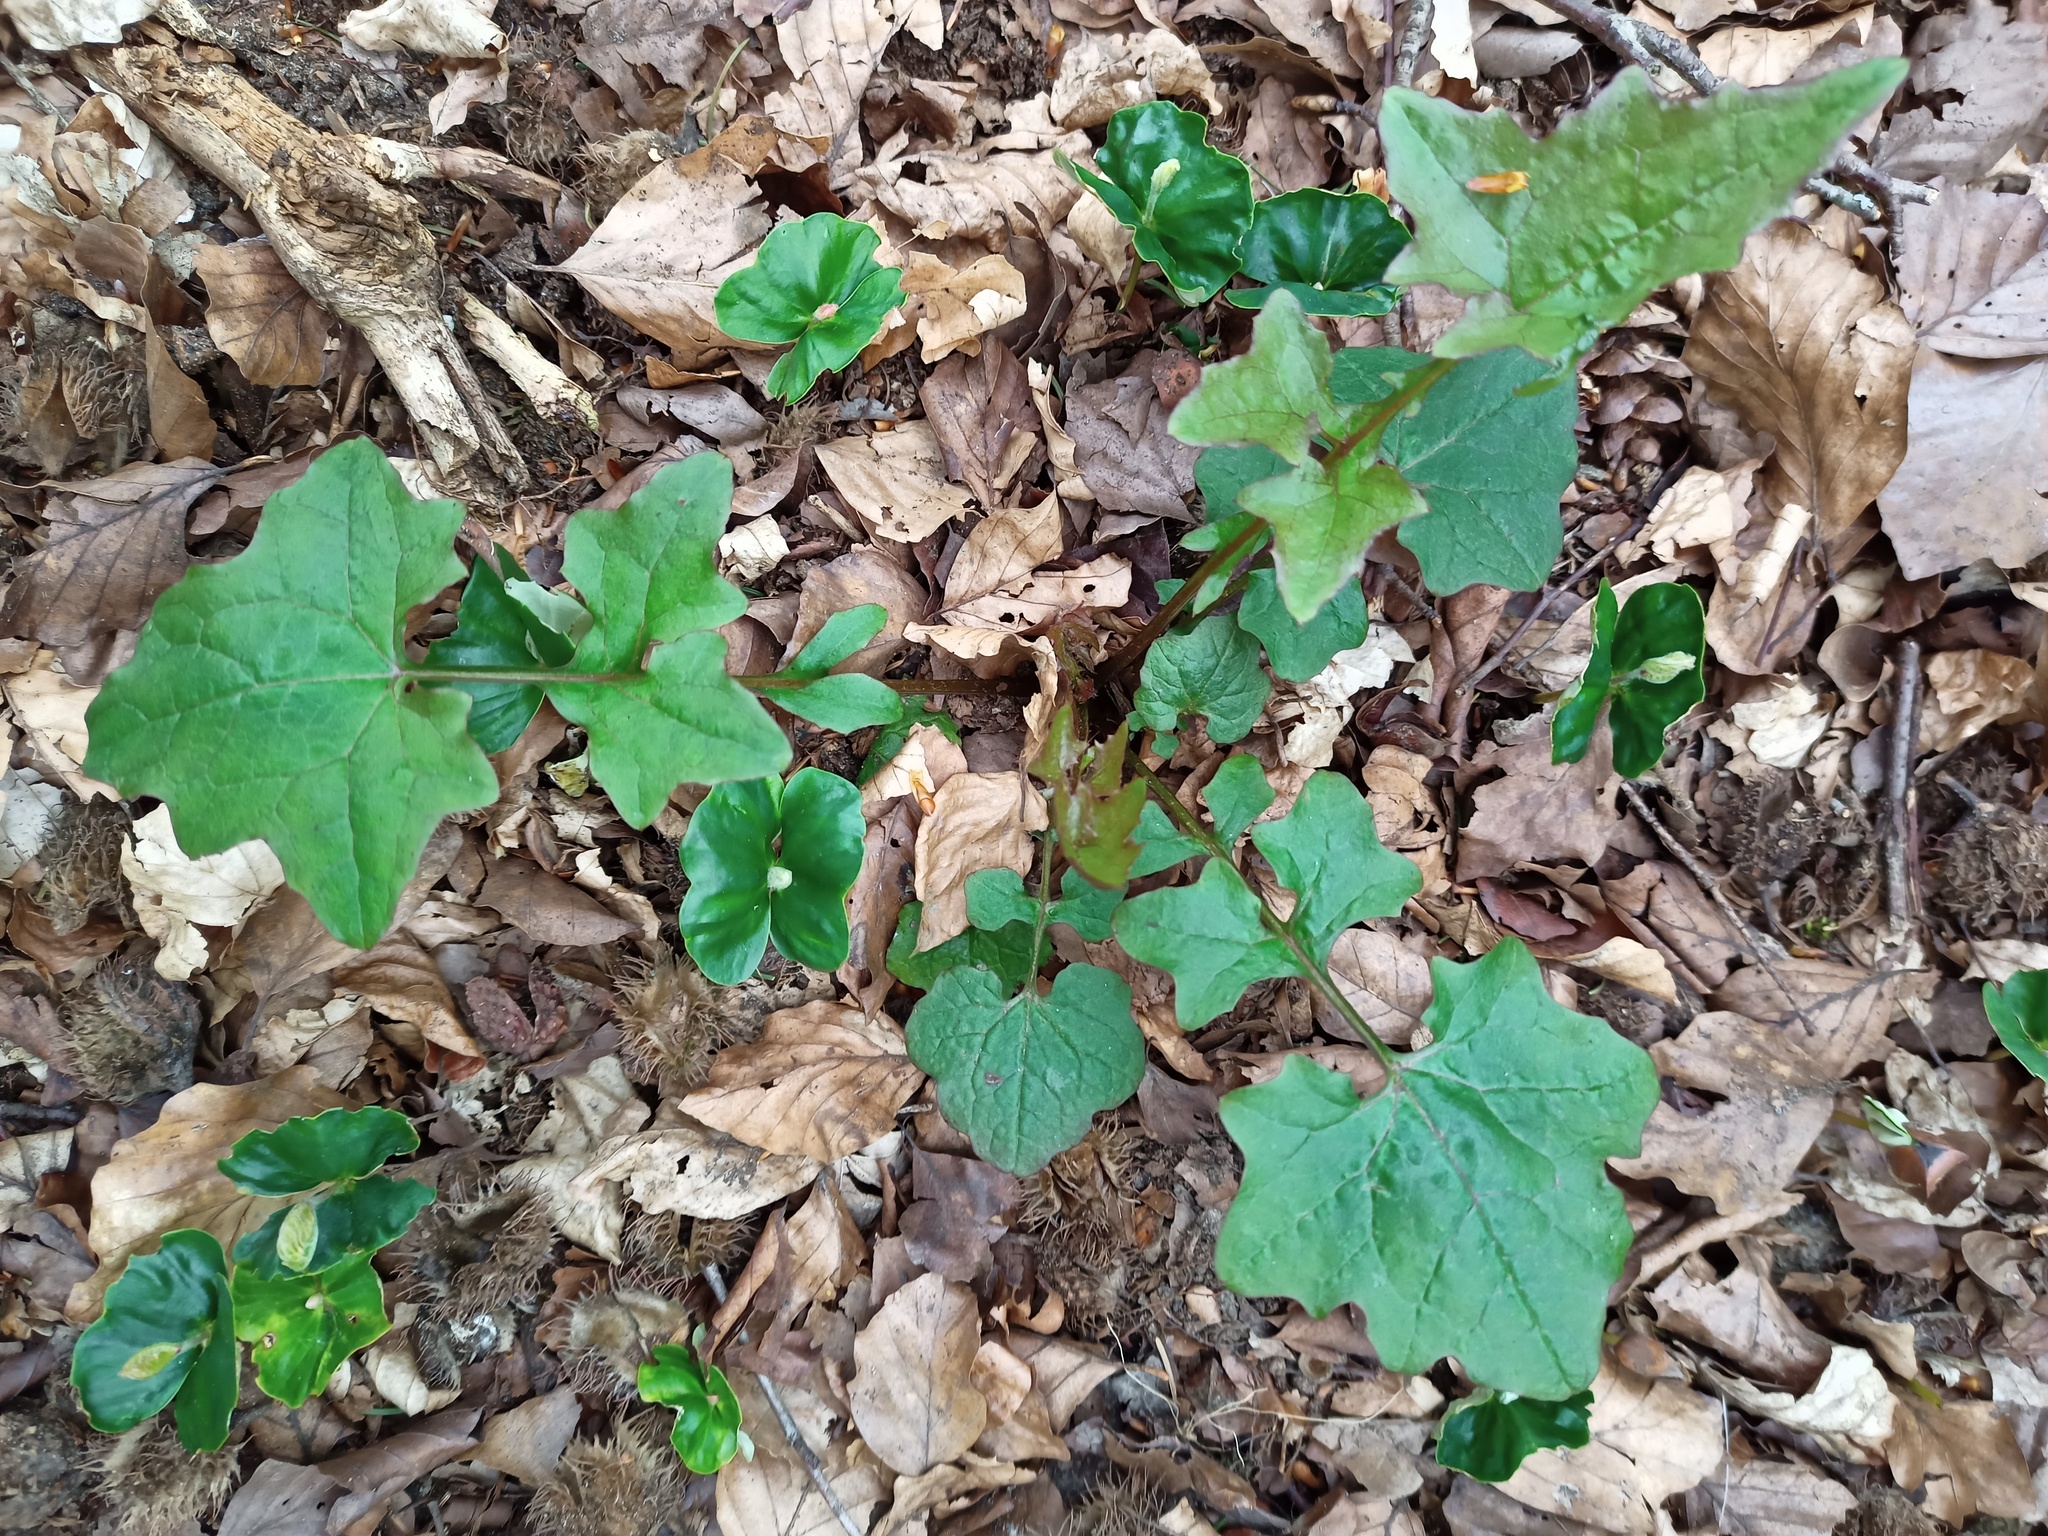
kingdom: Plantae
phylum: Tracheophyta
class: Magnoliopsida
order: Asterales
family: Asteraceae
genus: Mycelis
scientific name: Mycelis muralis
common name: Wall lettuce
